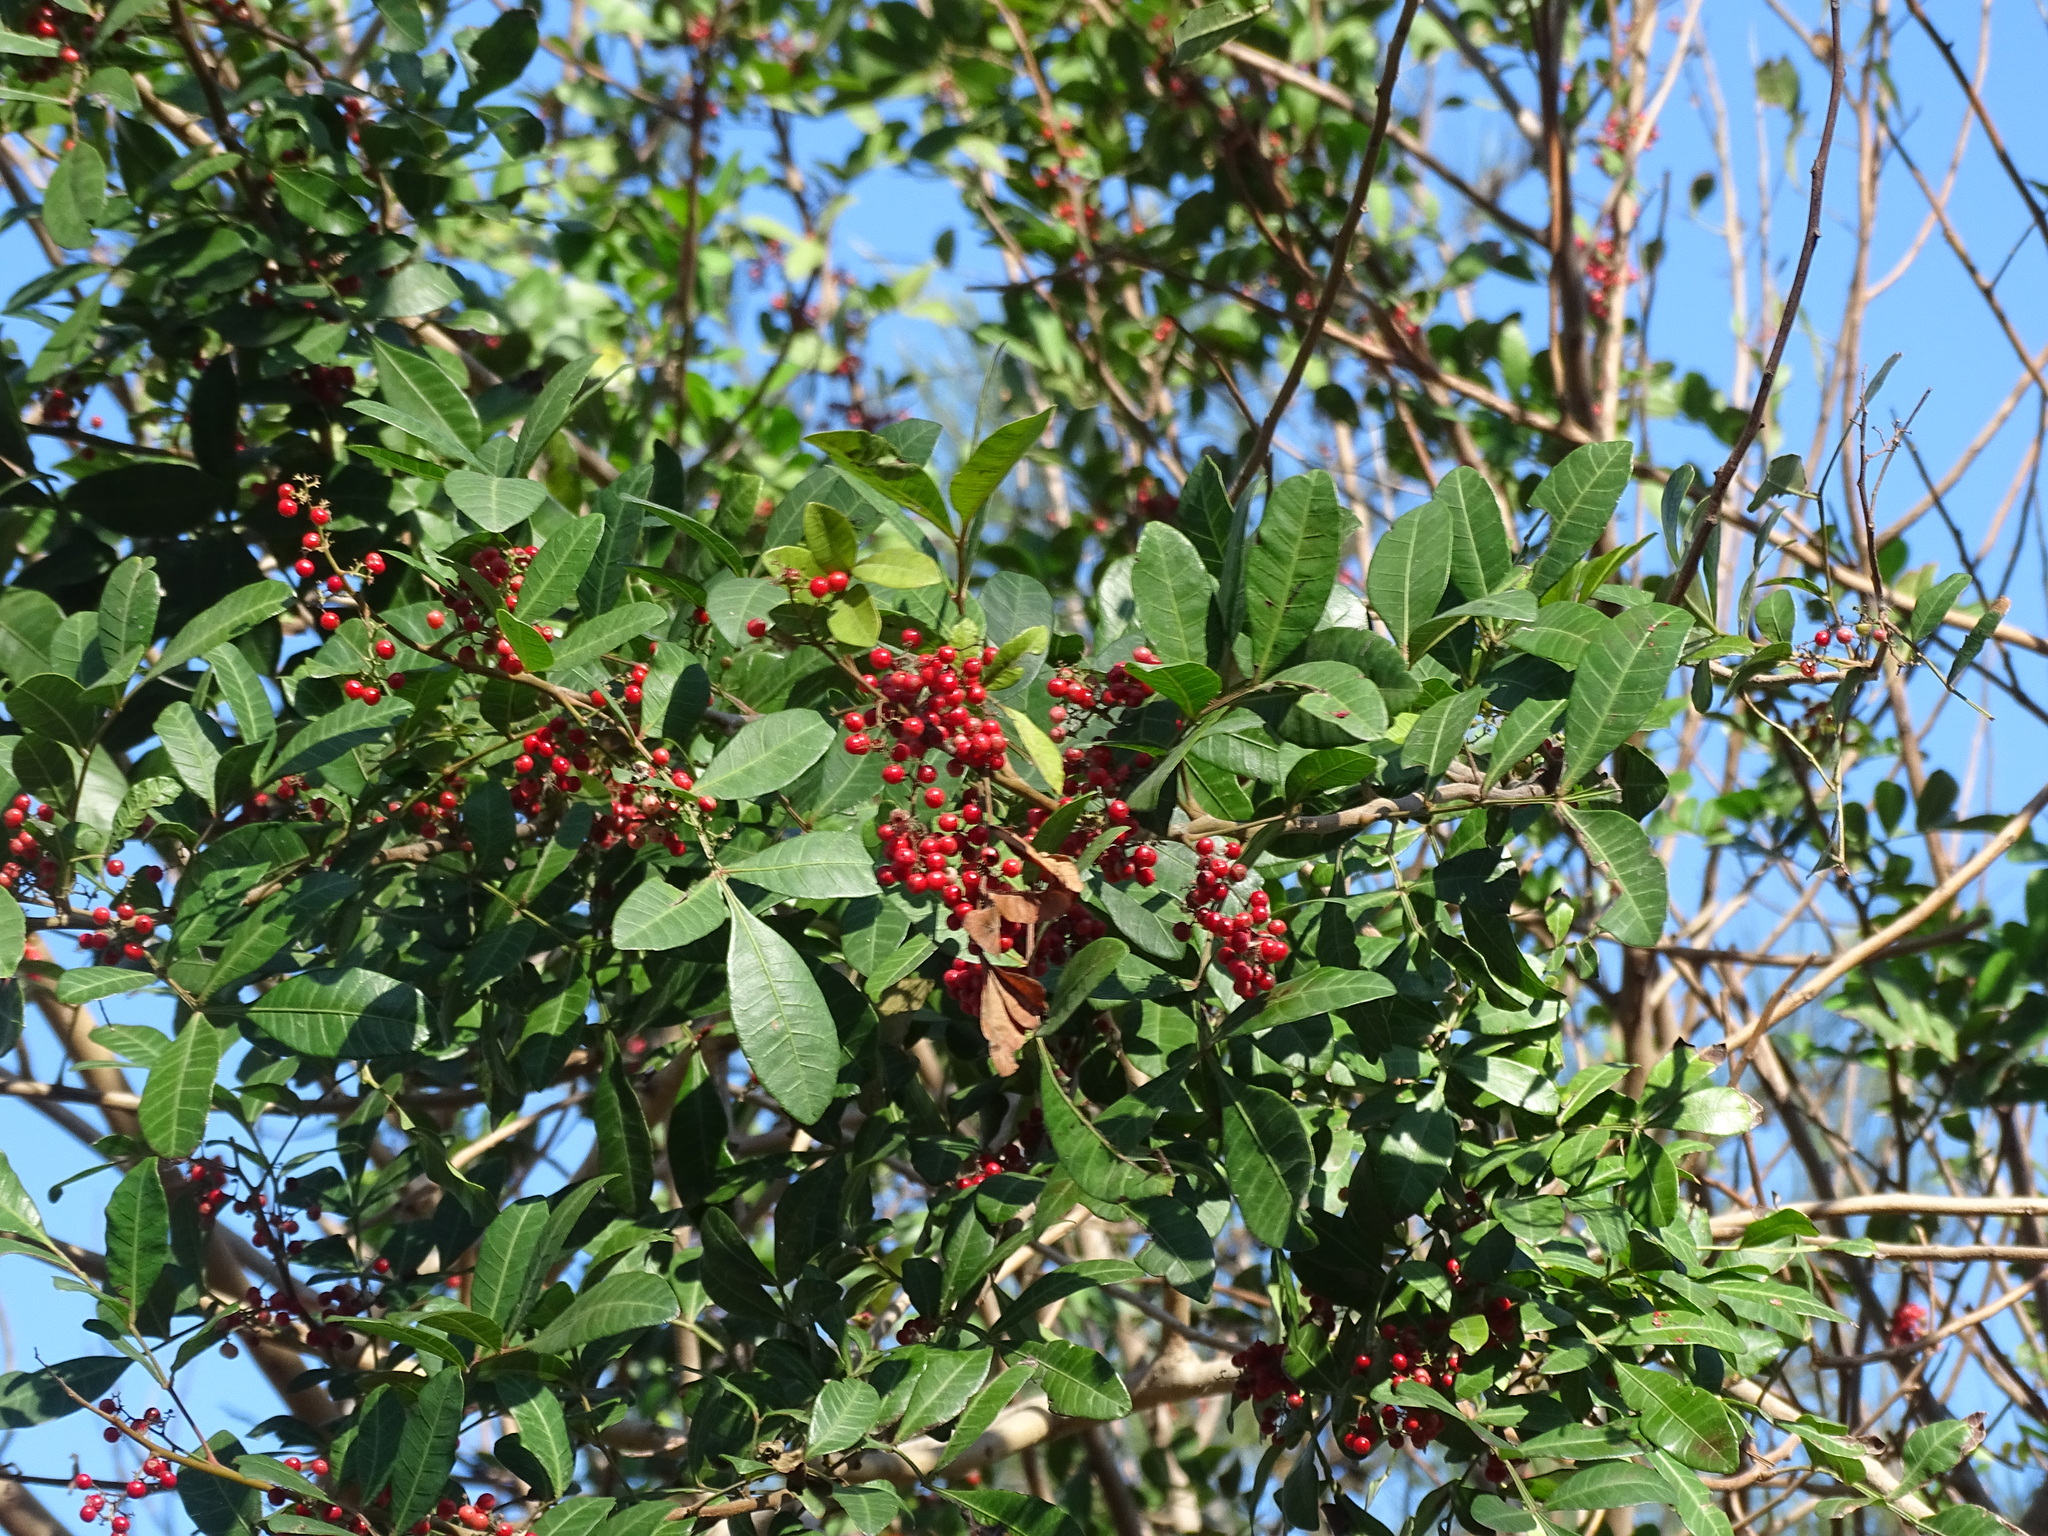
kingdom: Plantae
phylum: Tracheophyta
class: Magnoliopsida
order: Sapindales
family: Anacardiaceae
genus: Schinus
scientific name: Schinus terebinthifolia
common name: Brazilian peppertree
